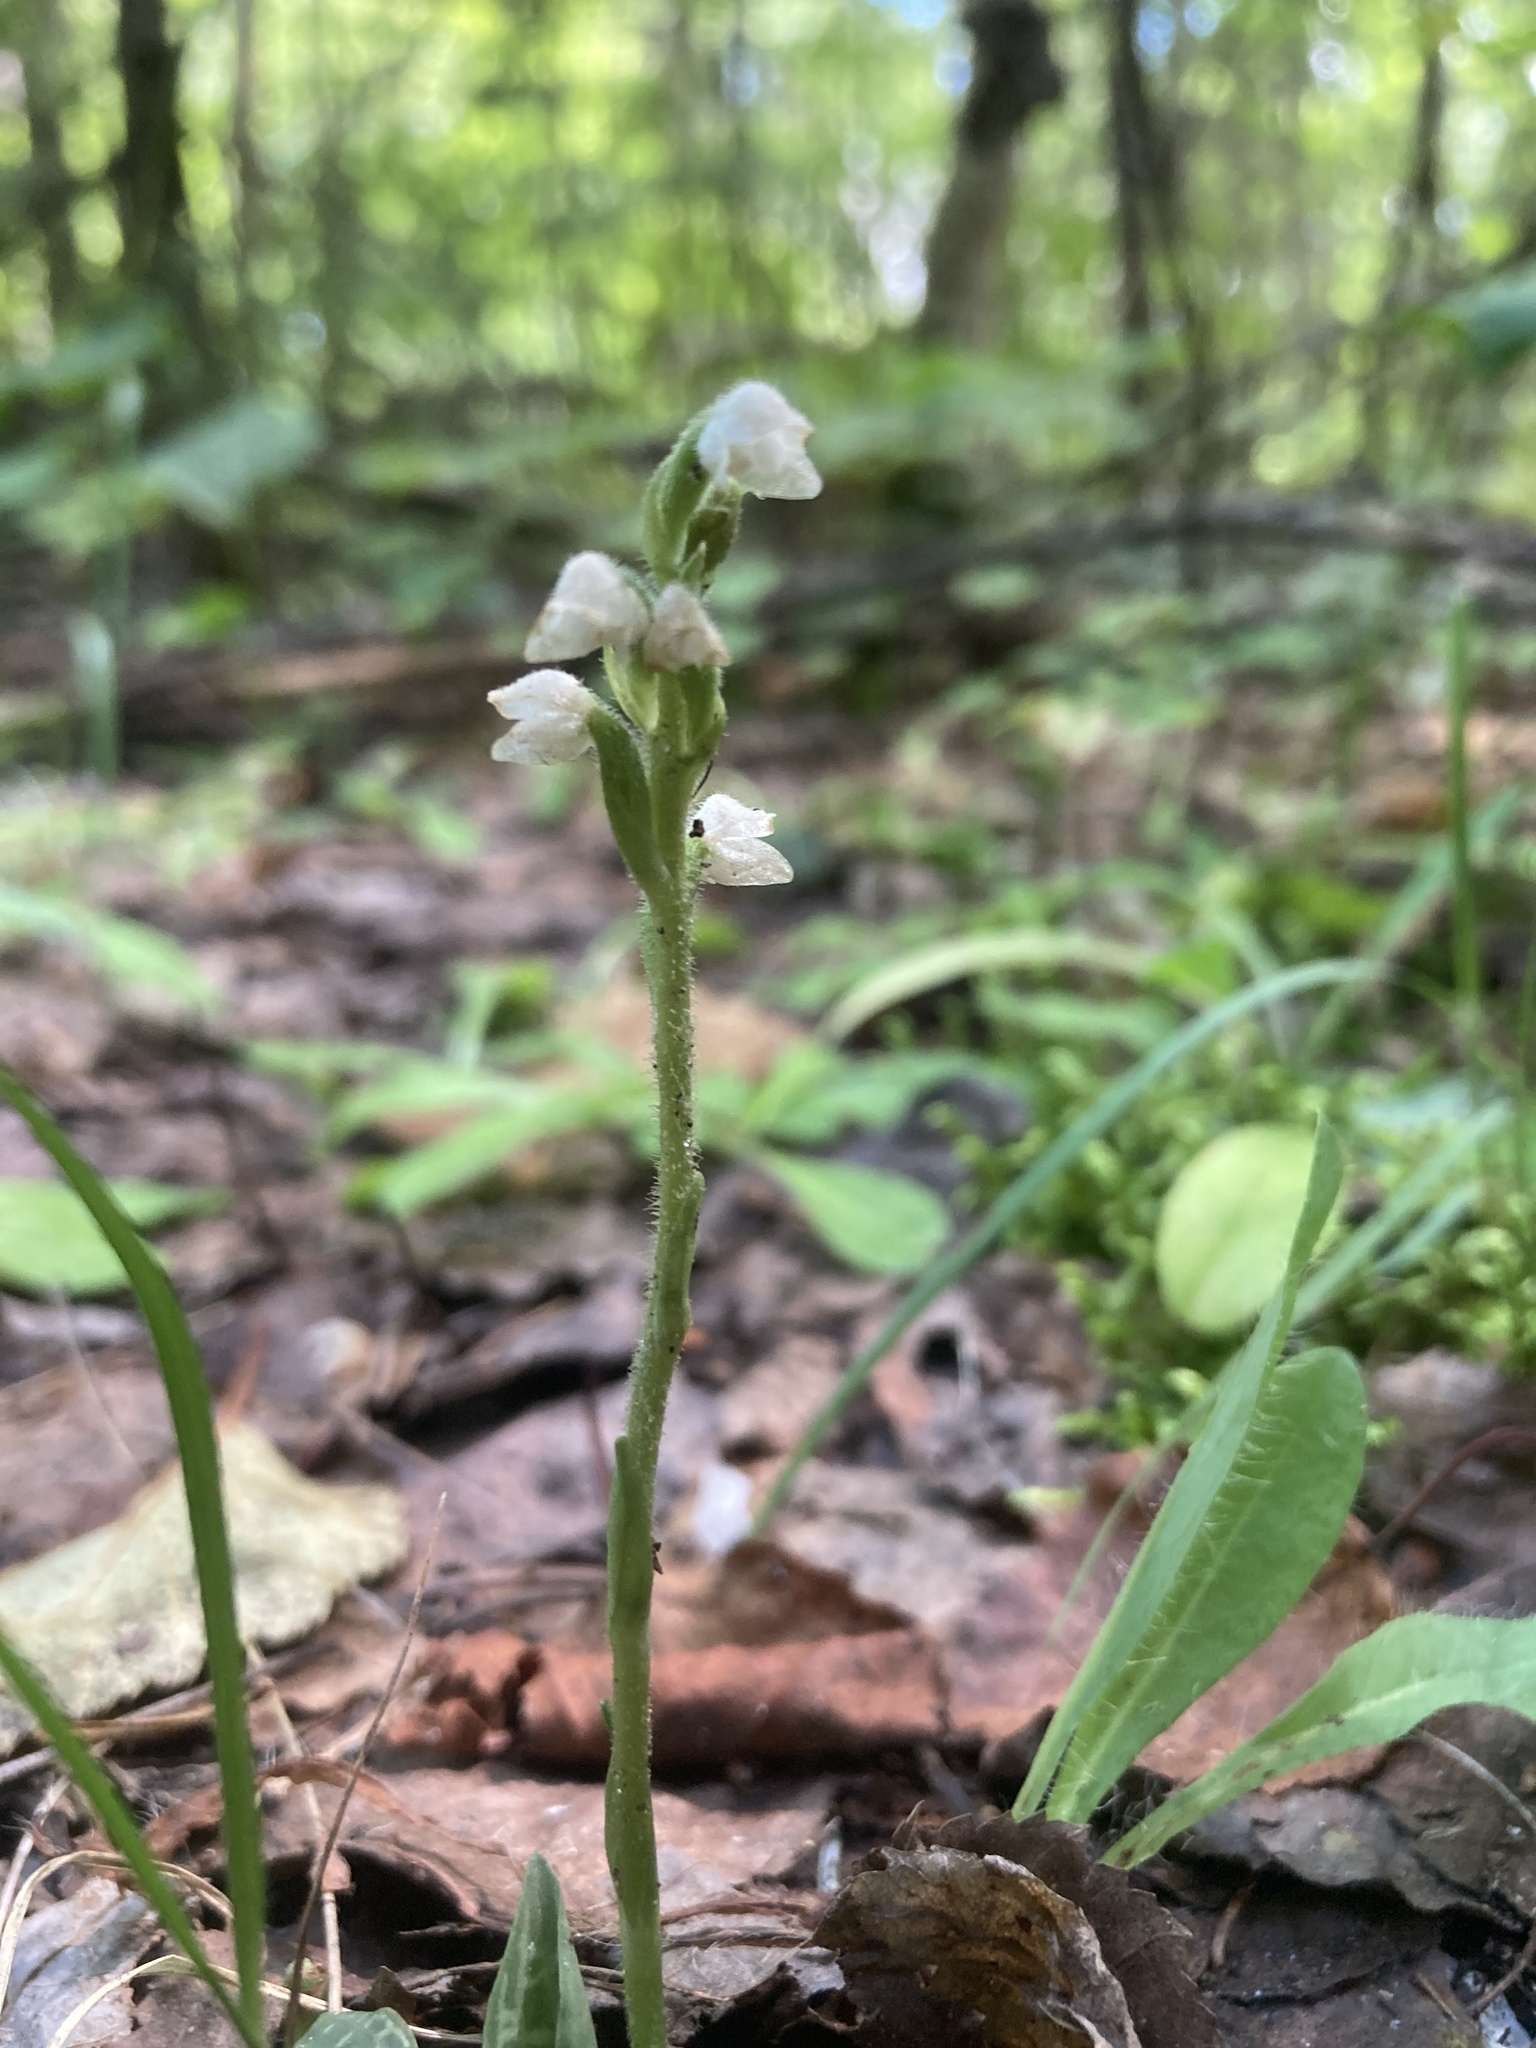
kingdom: Plantae
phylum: Tracheophyta
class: Liliopsida
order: Asparagales
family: Orchidaceae
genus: Goodyera
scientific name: Goodyera tesselata
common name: Checkered rattlesnake-plantain
